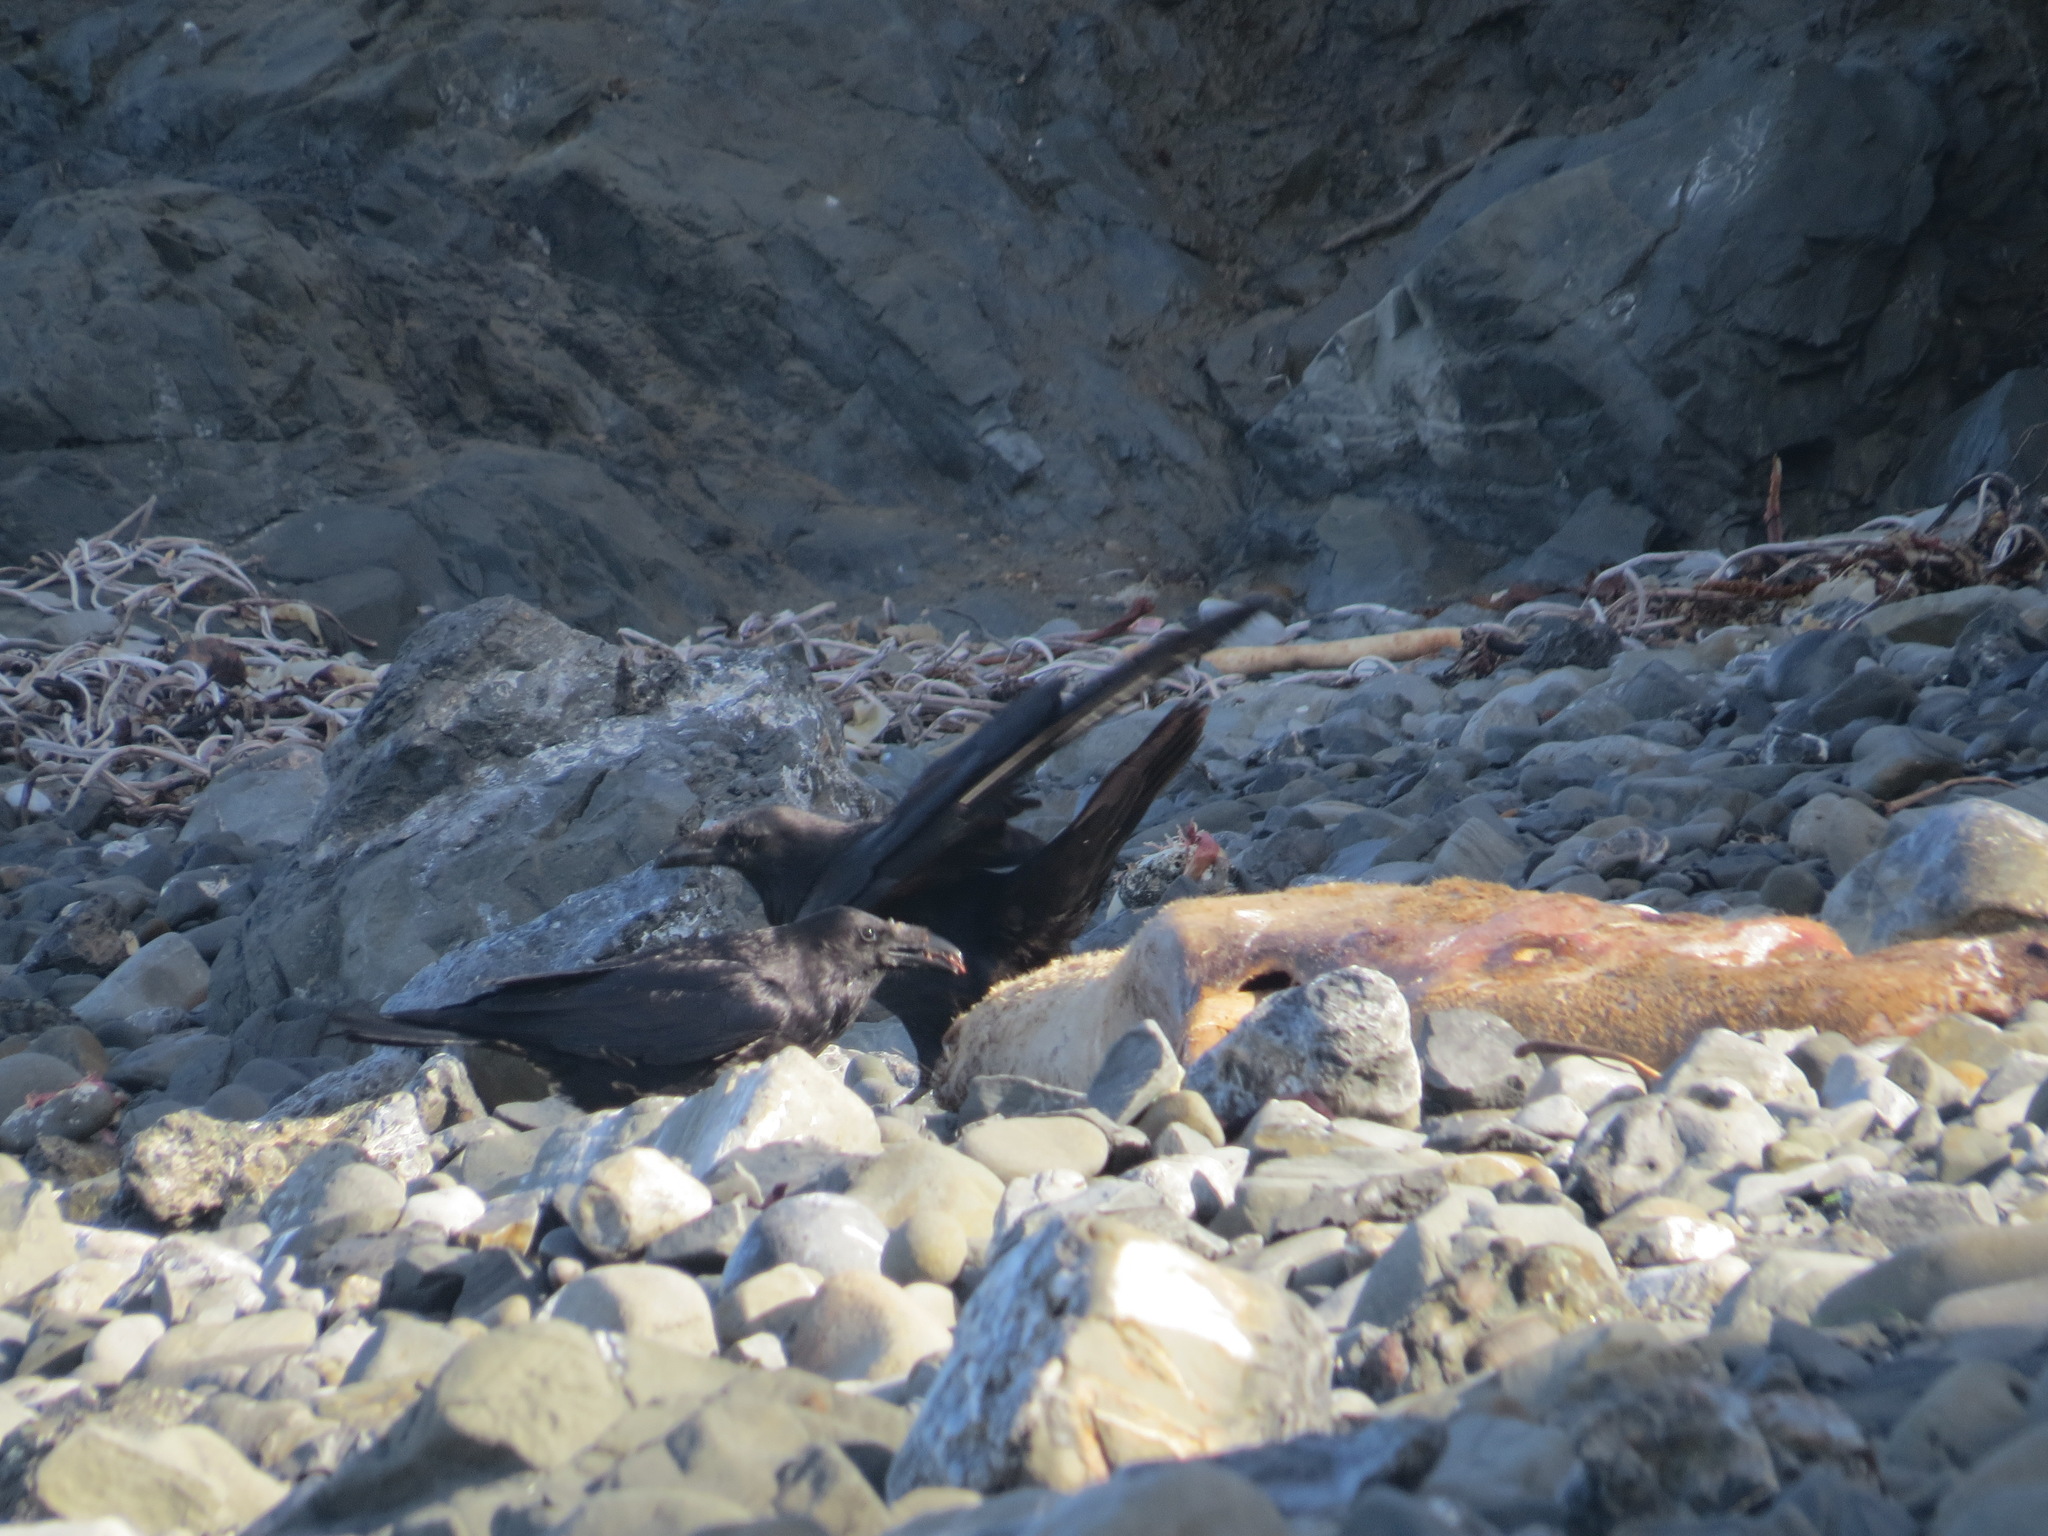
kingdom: Animalia
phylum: Chordata
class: Aves
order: Passeriformes
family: Corvidae
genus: Corvus
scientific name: Corvus corax
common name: Common raven
